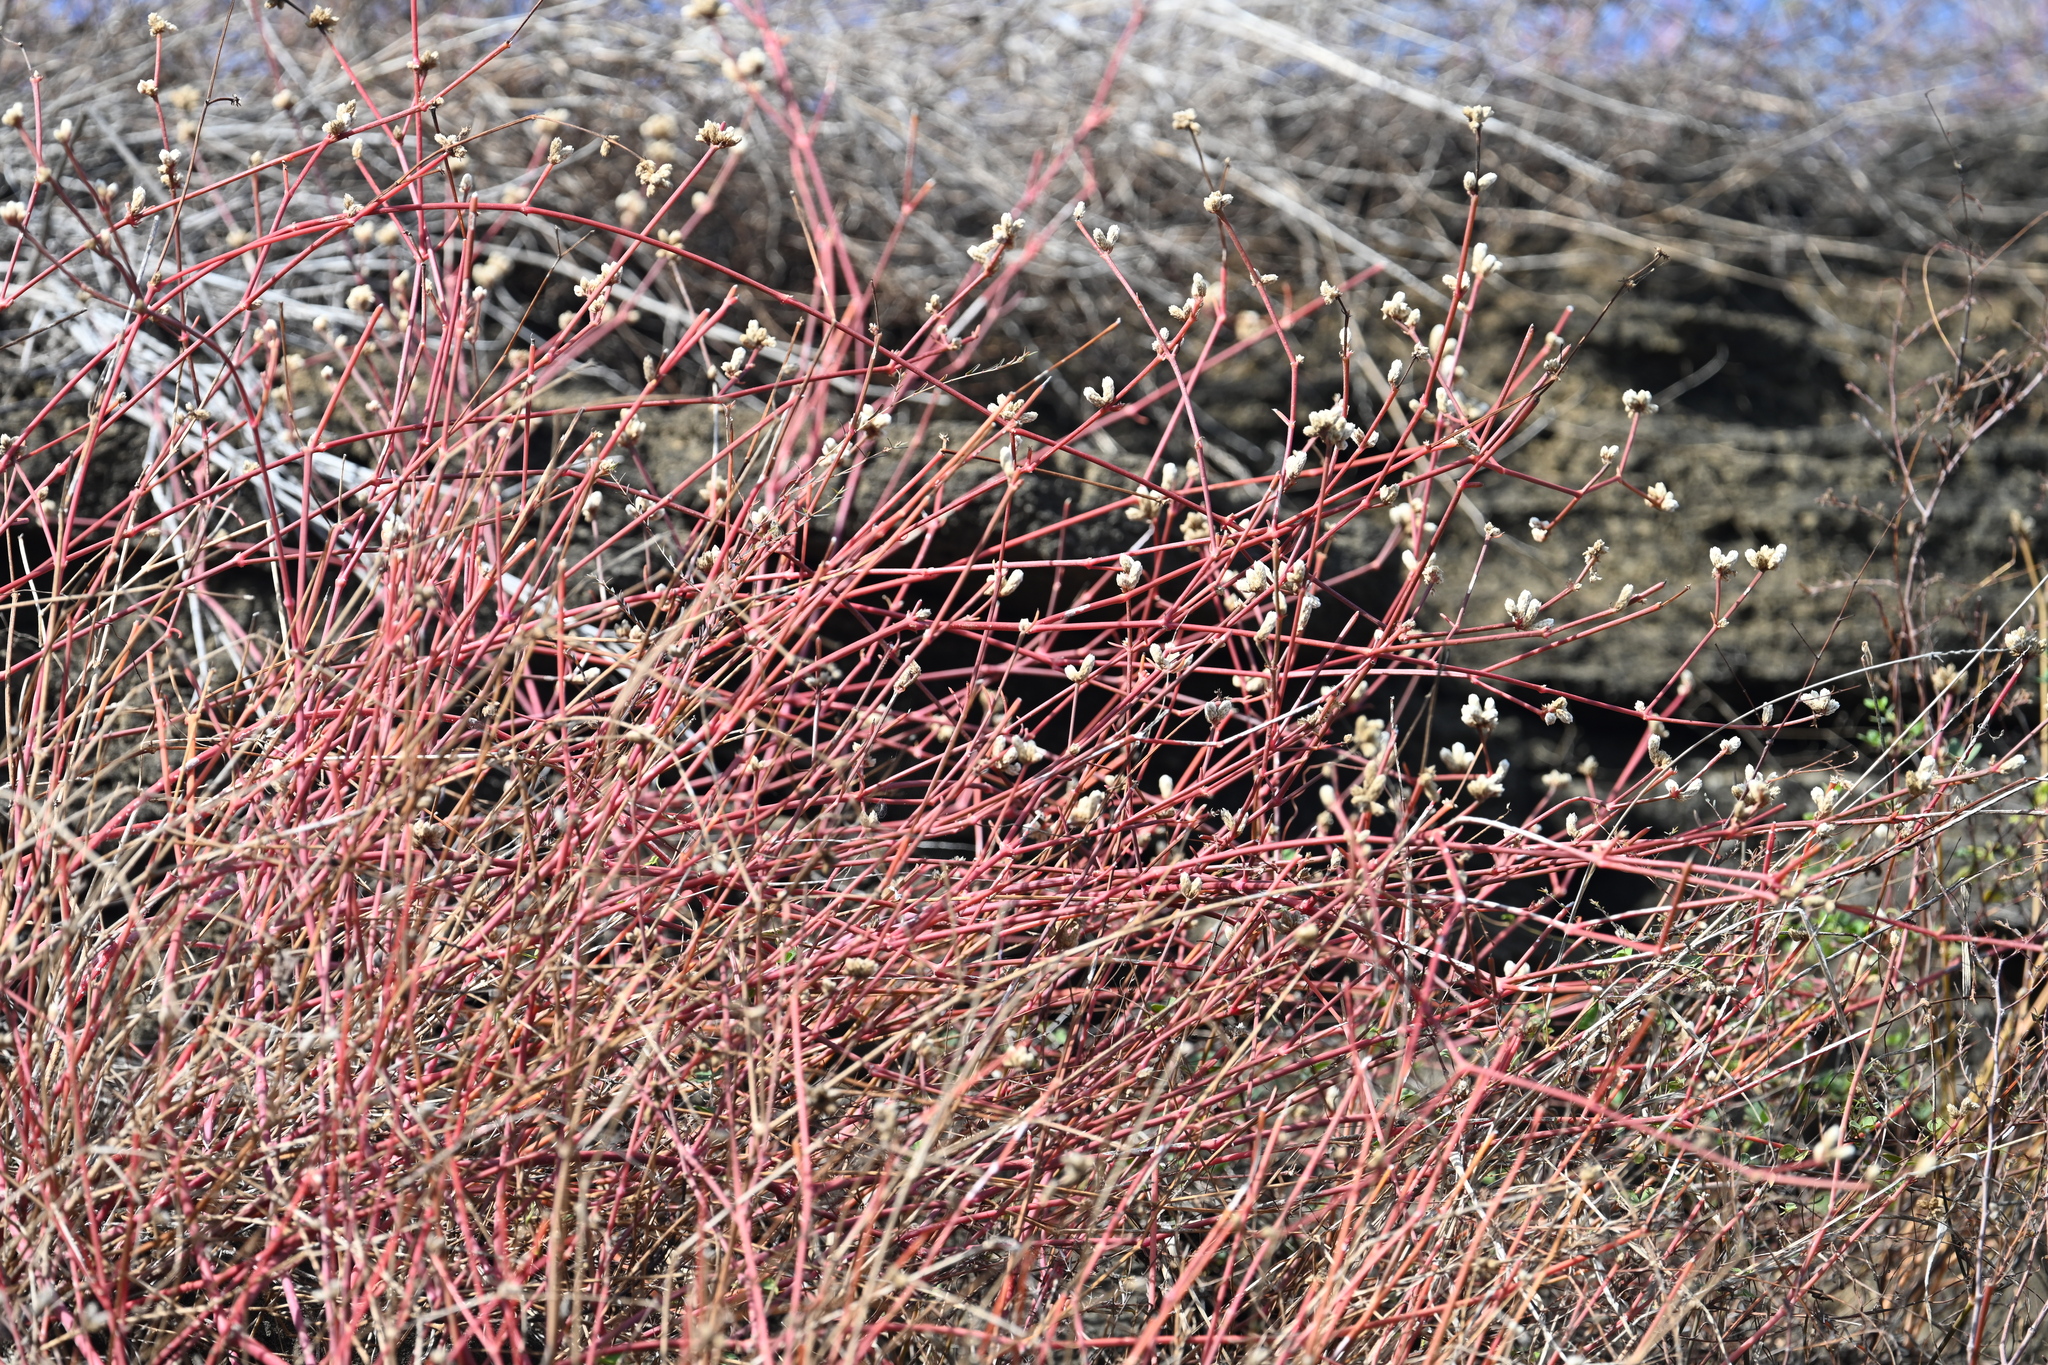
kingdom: Plantae
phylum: Tracheophyta
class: Magnoliopsida
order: Caryophyllales
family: Amaranthaceae
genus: Alternanthera
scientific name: Alternanthera filifolia
